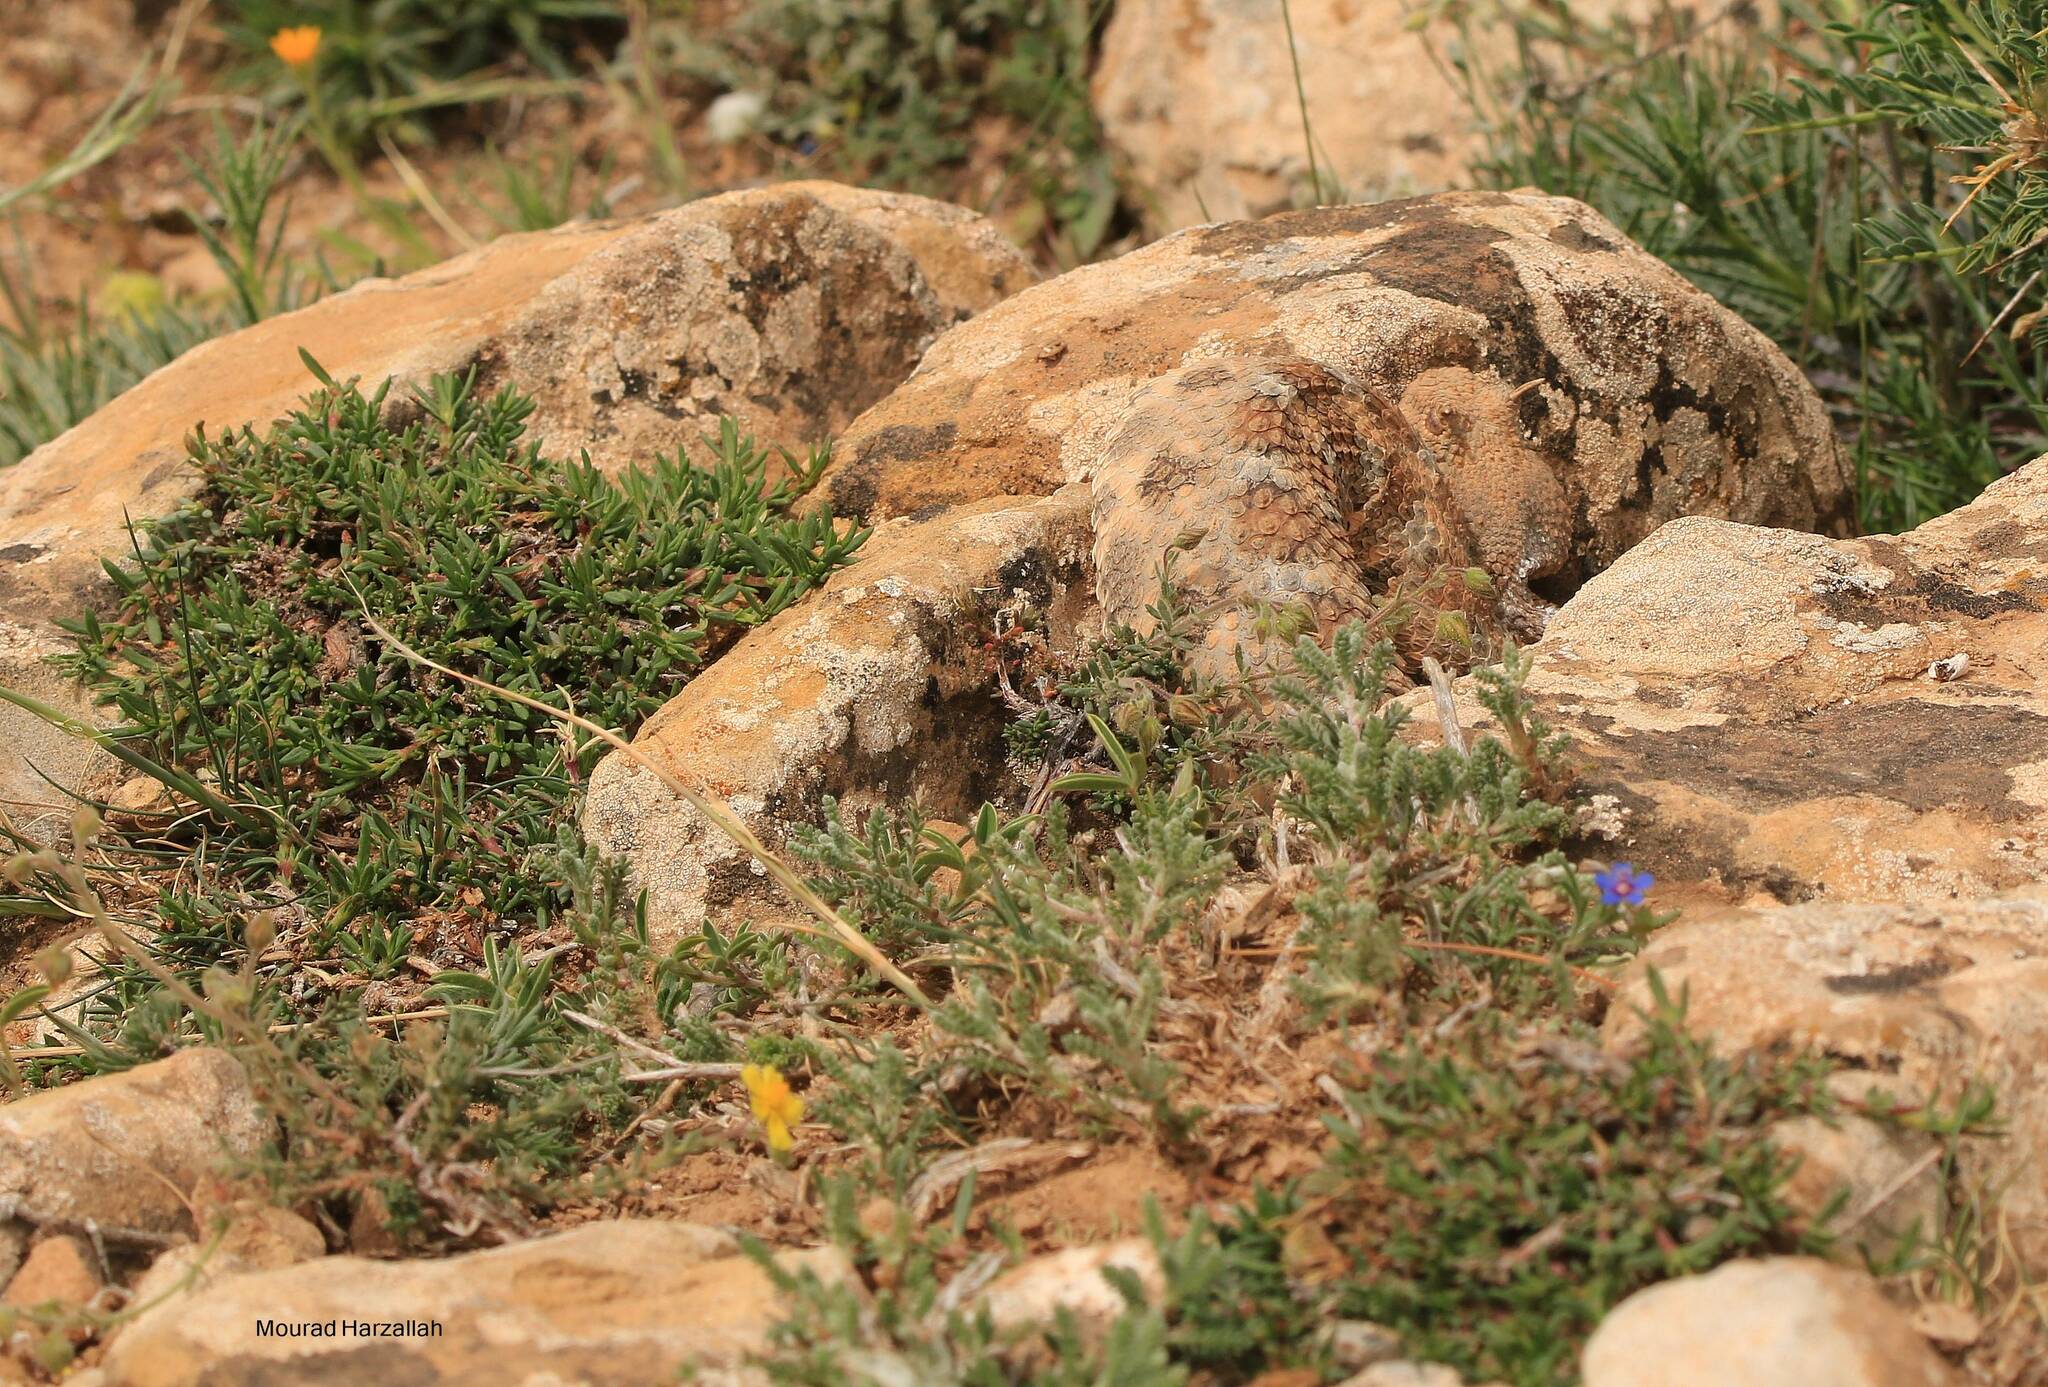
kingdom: Animalia
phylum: Chordata
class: Squamata
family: Viperidae
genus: Cerastes
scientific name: Cerastes cerastes
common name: Desert horned viper
